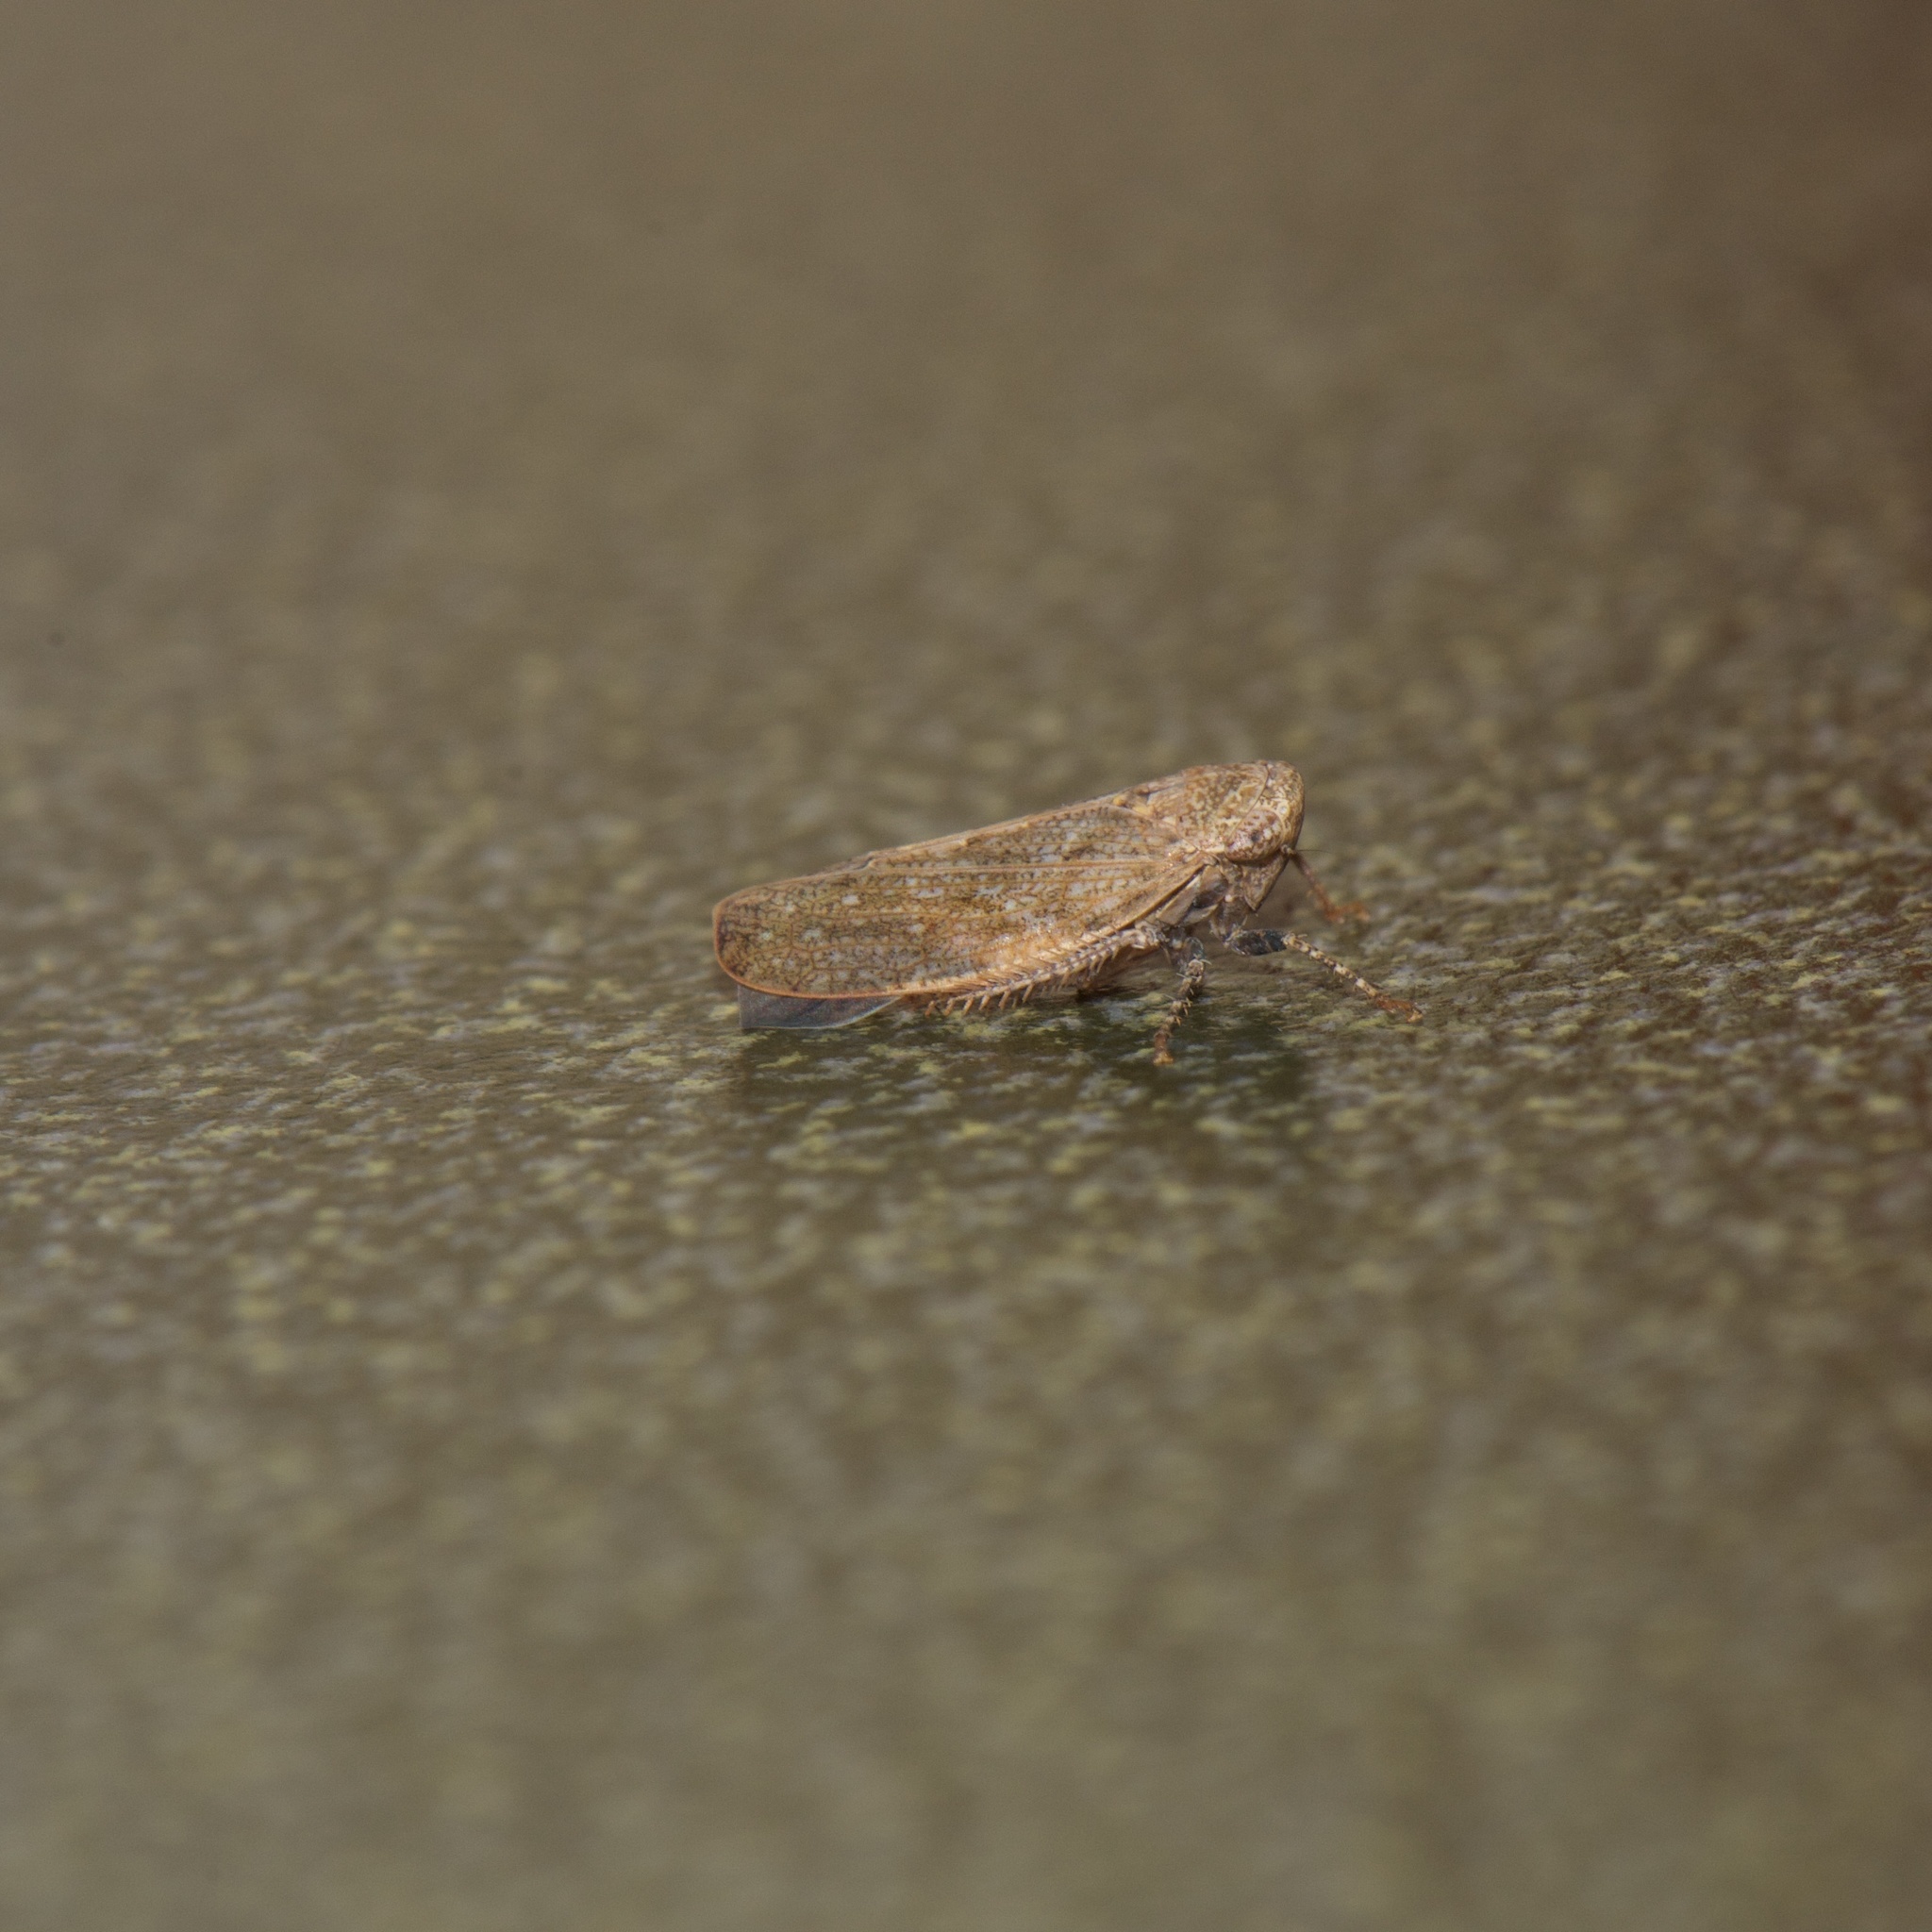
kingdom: Animalia
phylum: Arthropoda
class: Insecta
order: Hemiptera
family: Cicadellidae
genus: Paraphlepsius
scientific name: Paraphlepsius continuus
